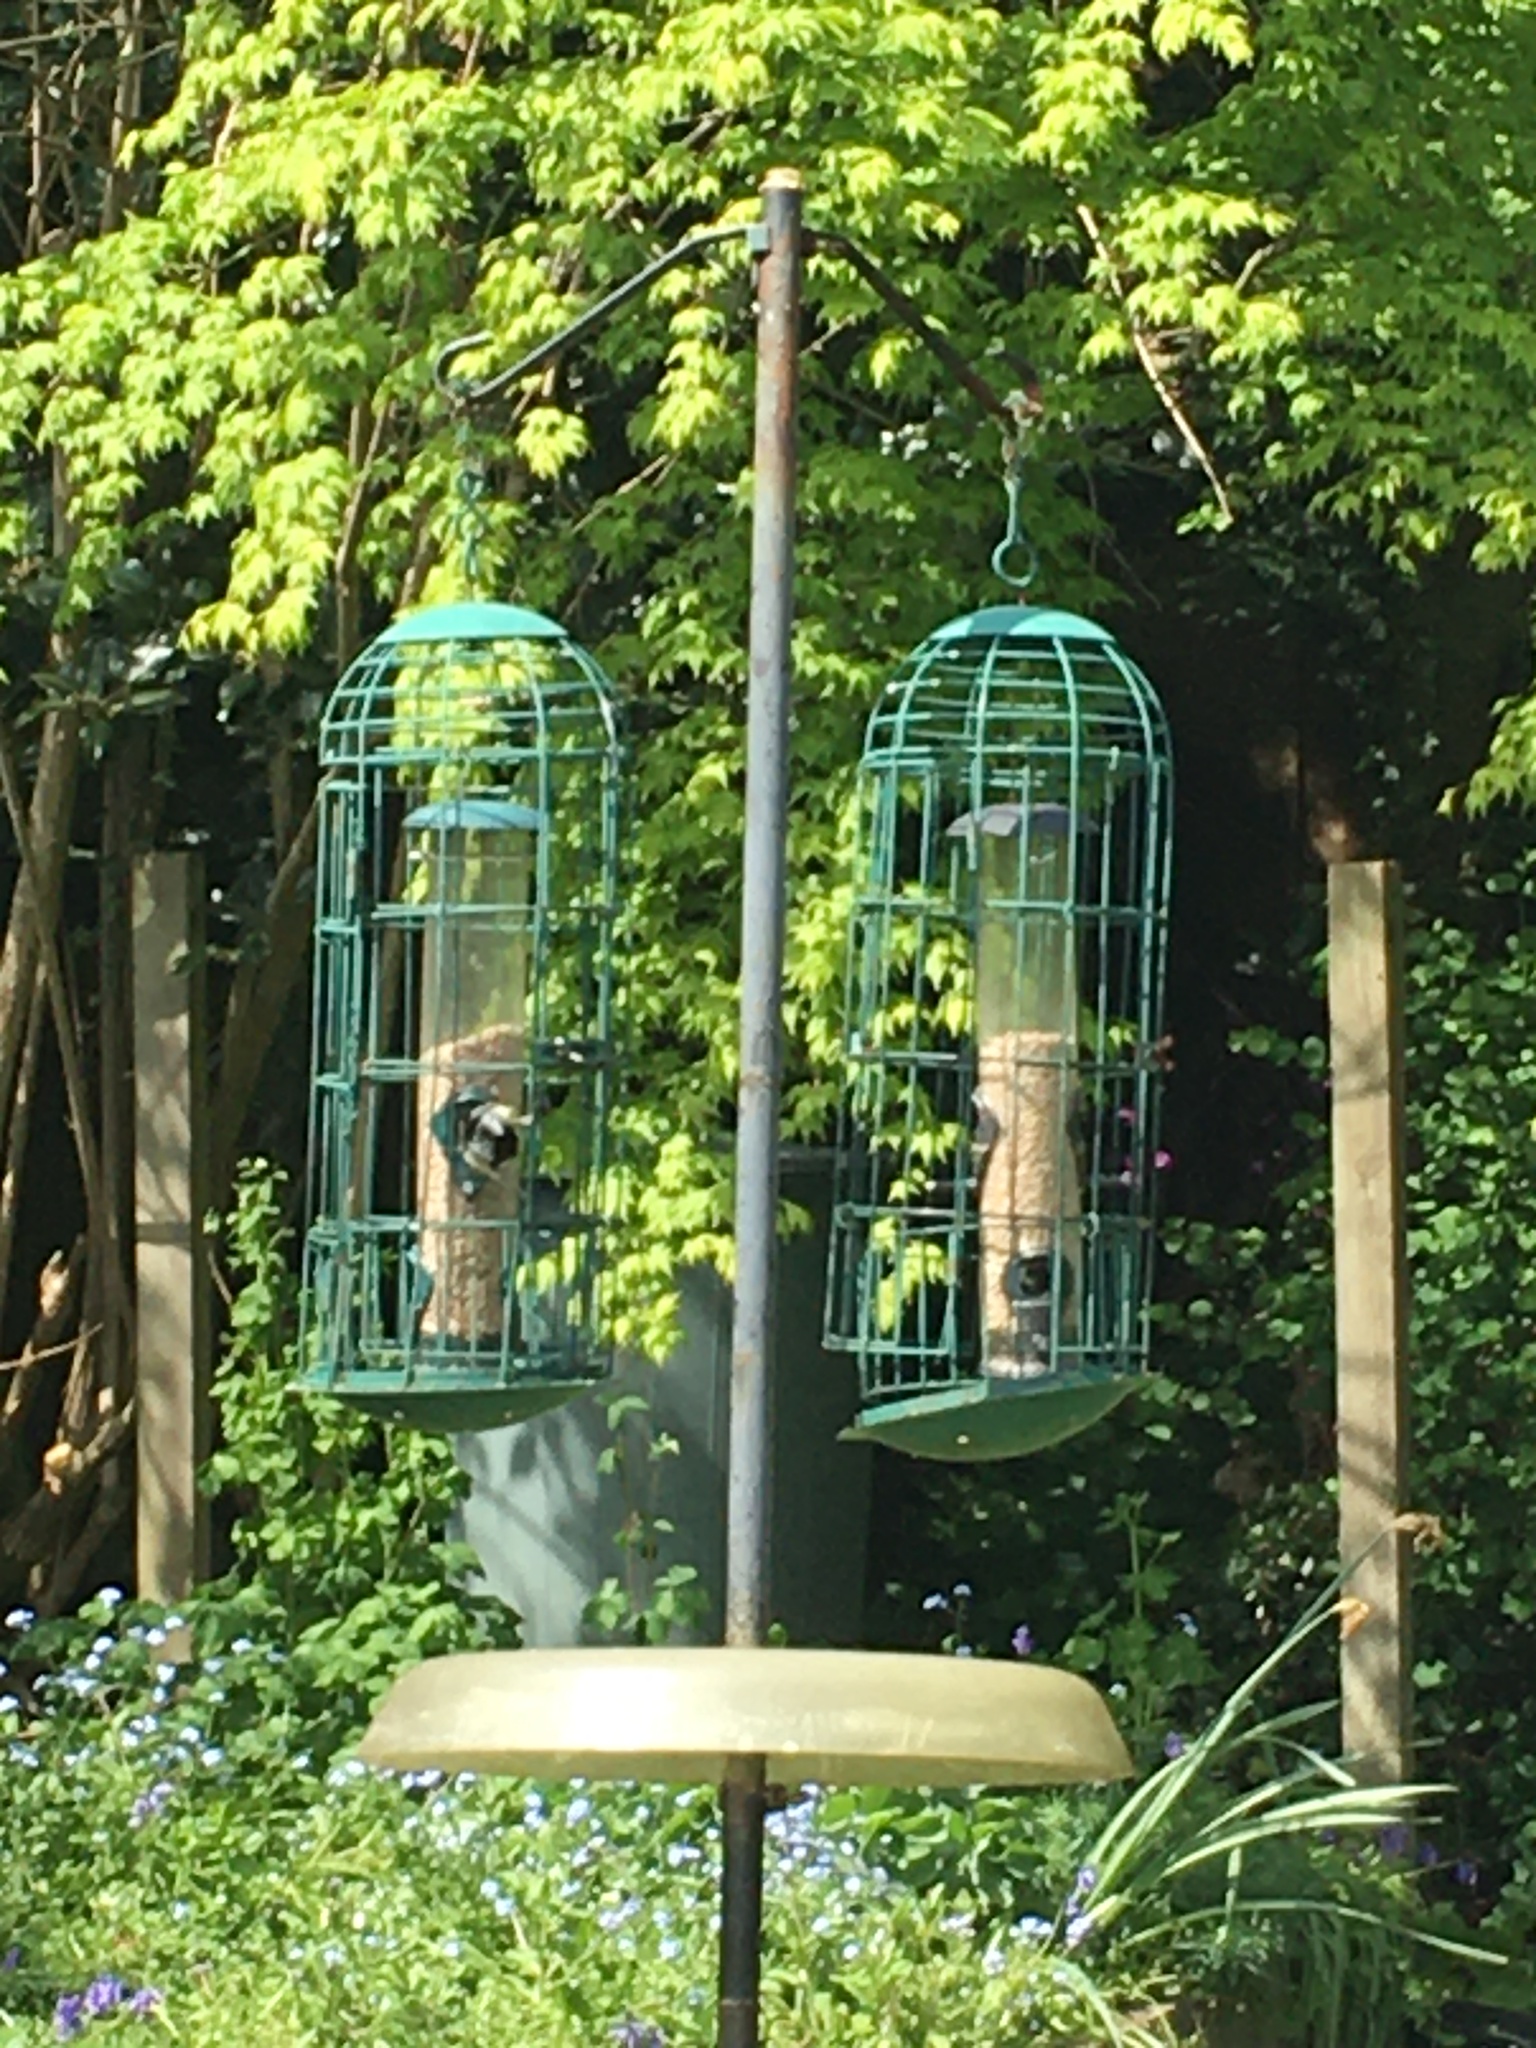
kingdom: Animalia
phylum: Chordata
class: Aves
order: Passeriformes
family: Paridae
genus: Parus
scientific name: Parus major
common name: Great tit
